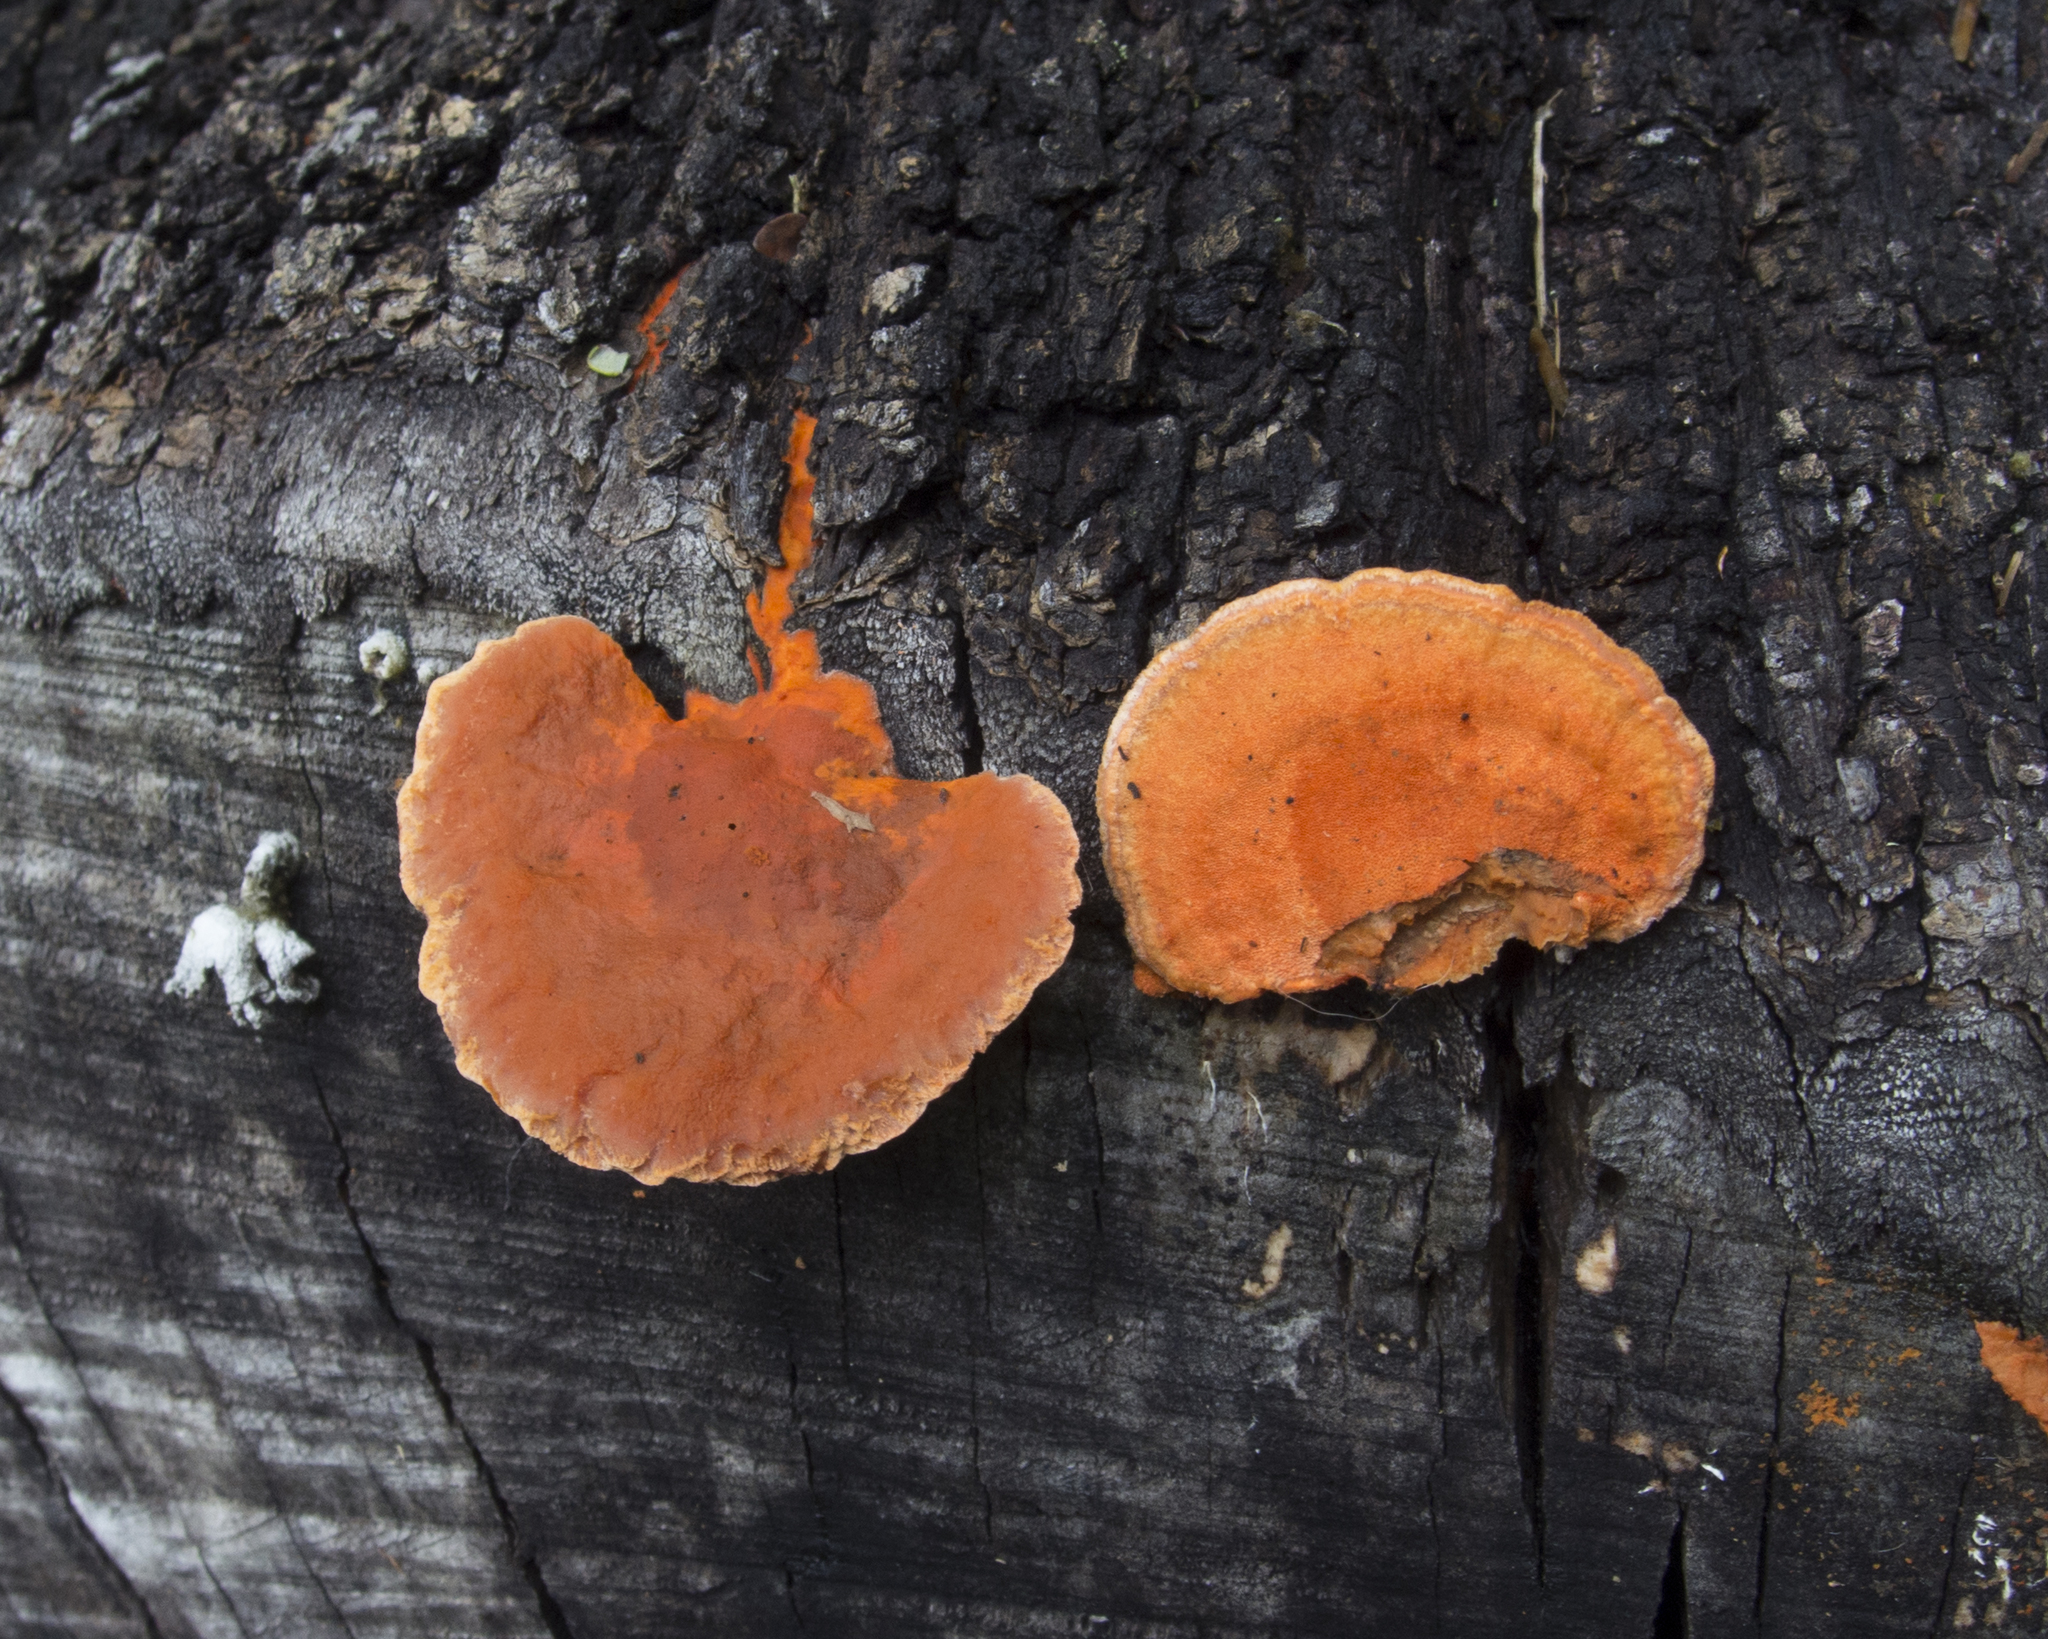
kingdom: Fungi
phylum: Basidiomycota
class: Agaricomycetes
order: Polyporales
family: Polyporaceae
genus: Trametes
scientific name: Trametes coccinea
